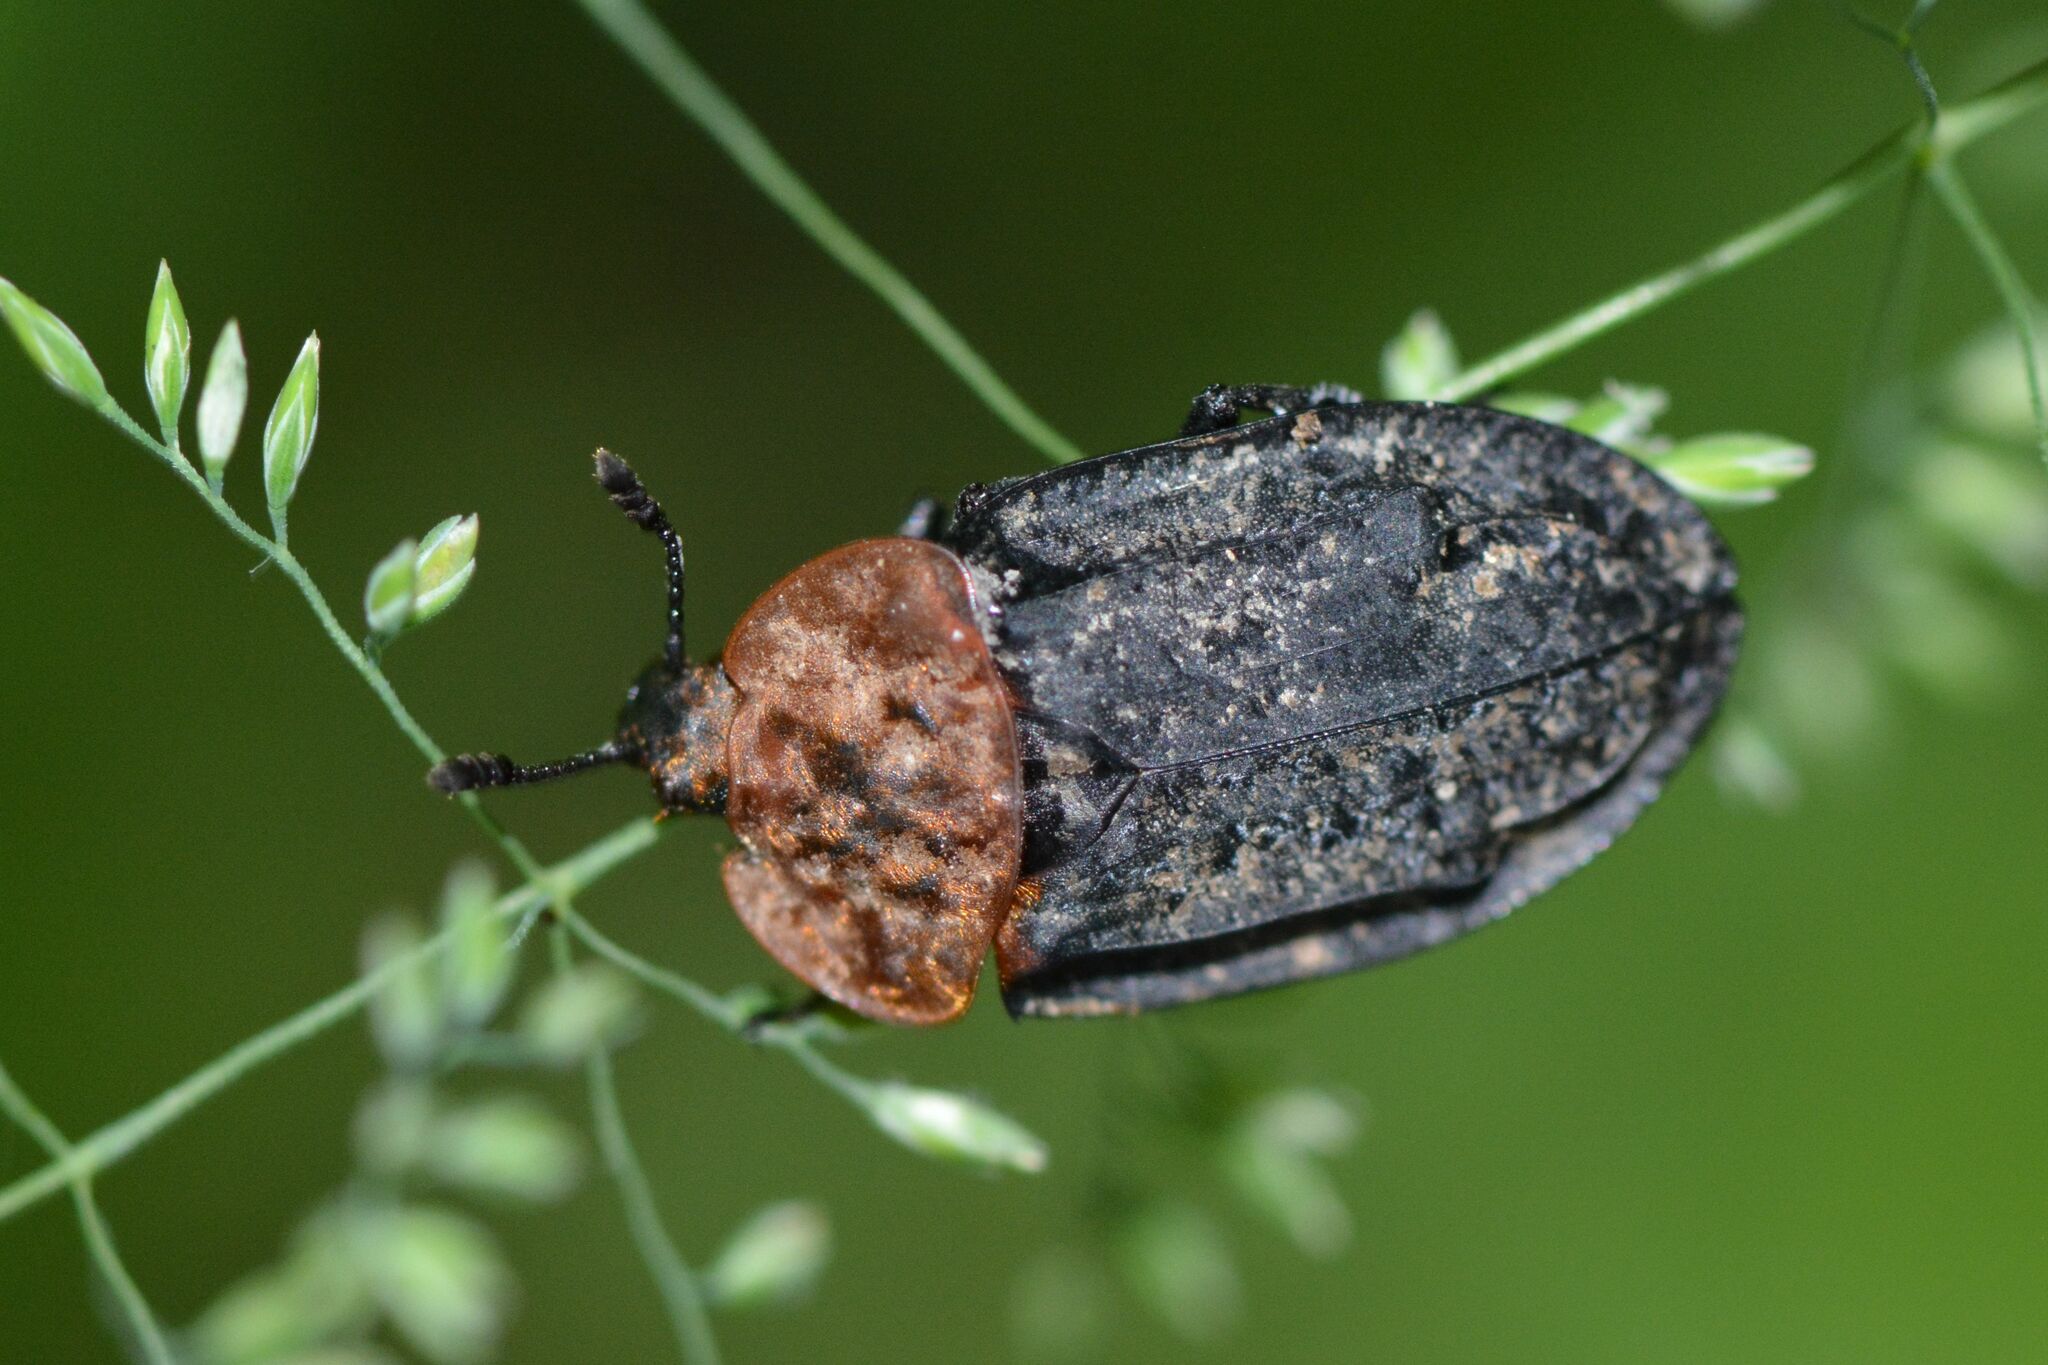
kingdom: Animalia
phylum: Arthropoda
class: Insecta
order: Coleoptera
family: Staphylinidae
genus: Oiceoptoma
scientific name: Oiceoptoma thoracicum
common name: Red-breasted carrion beetle
